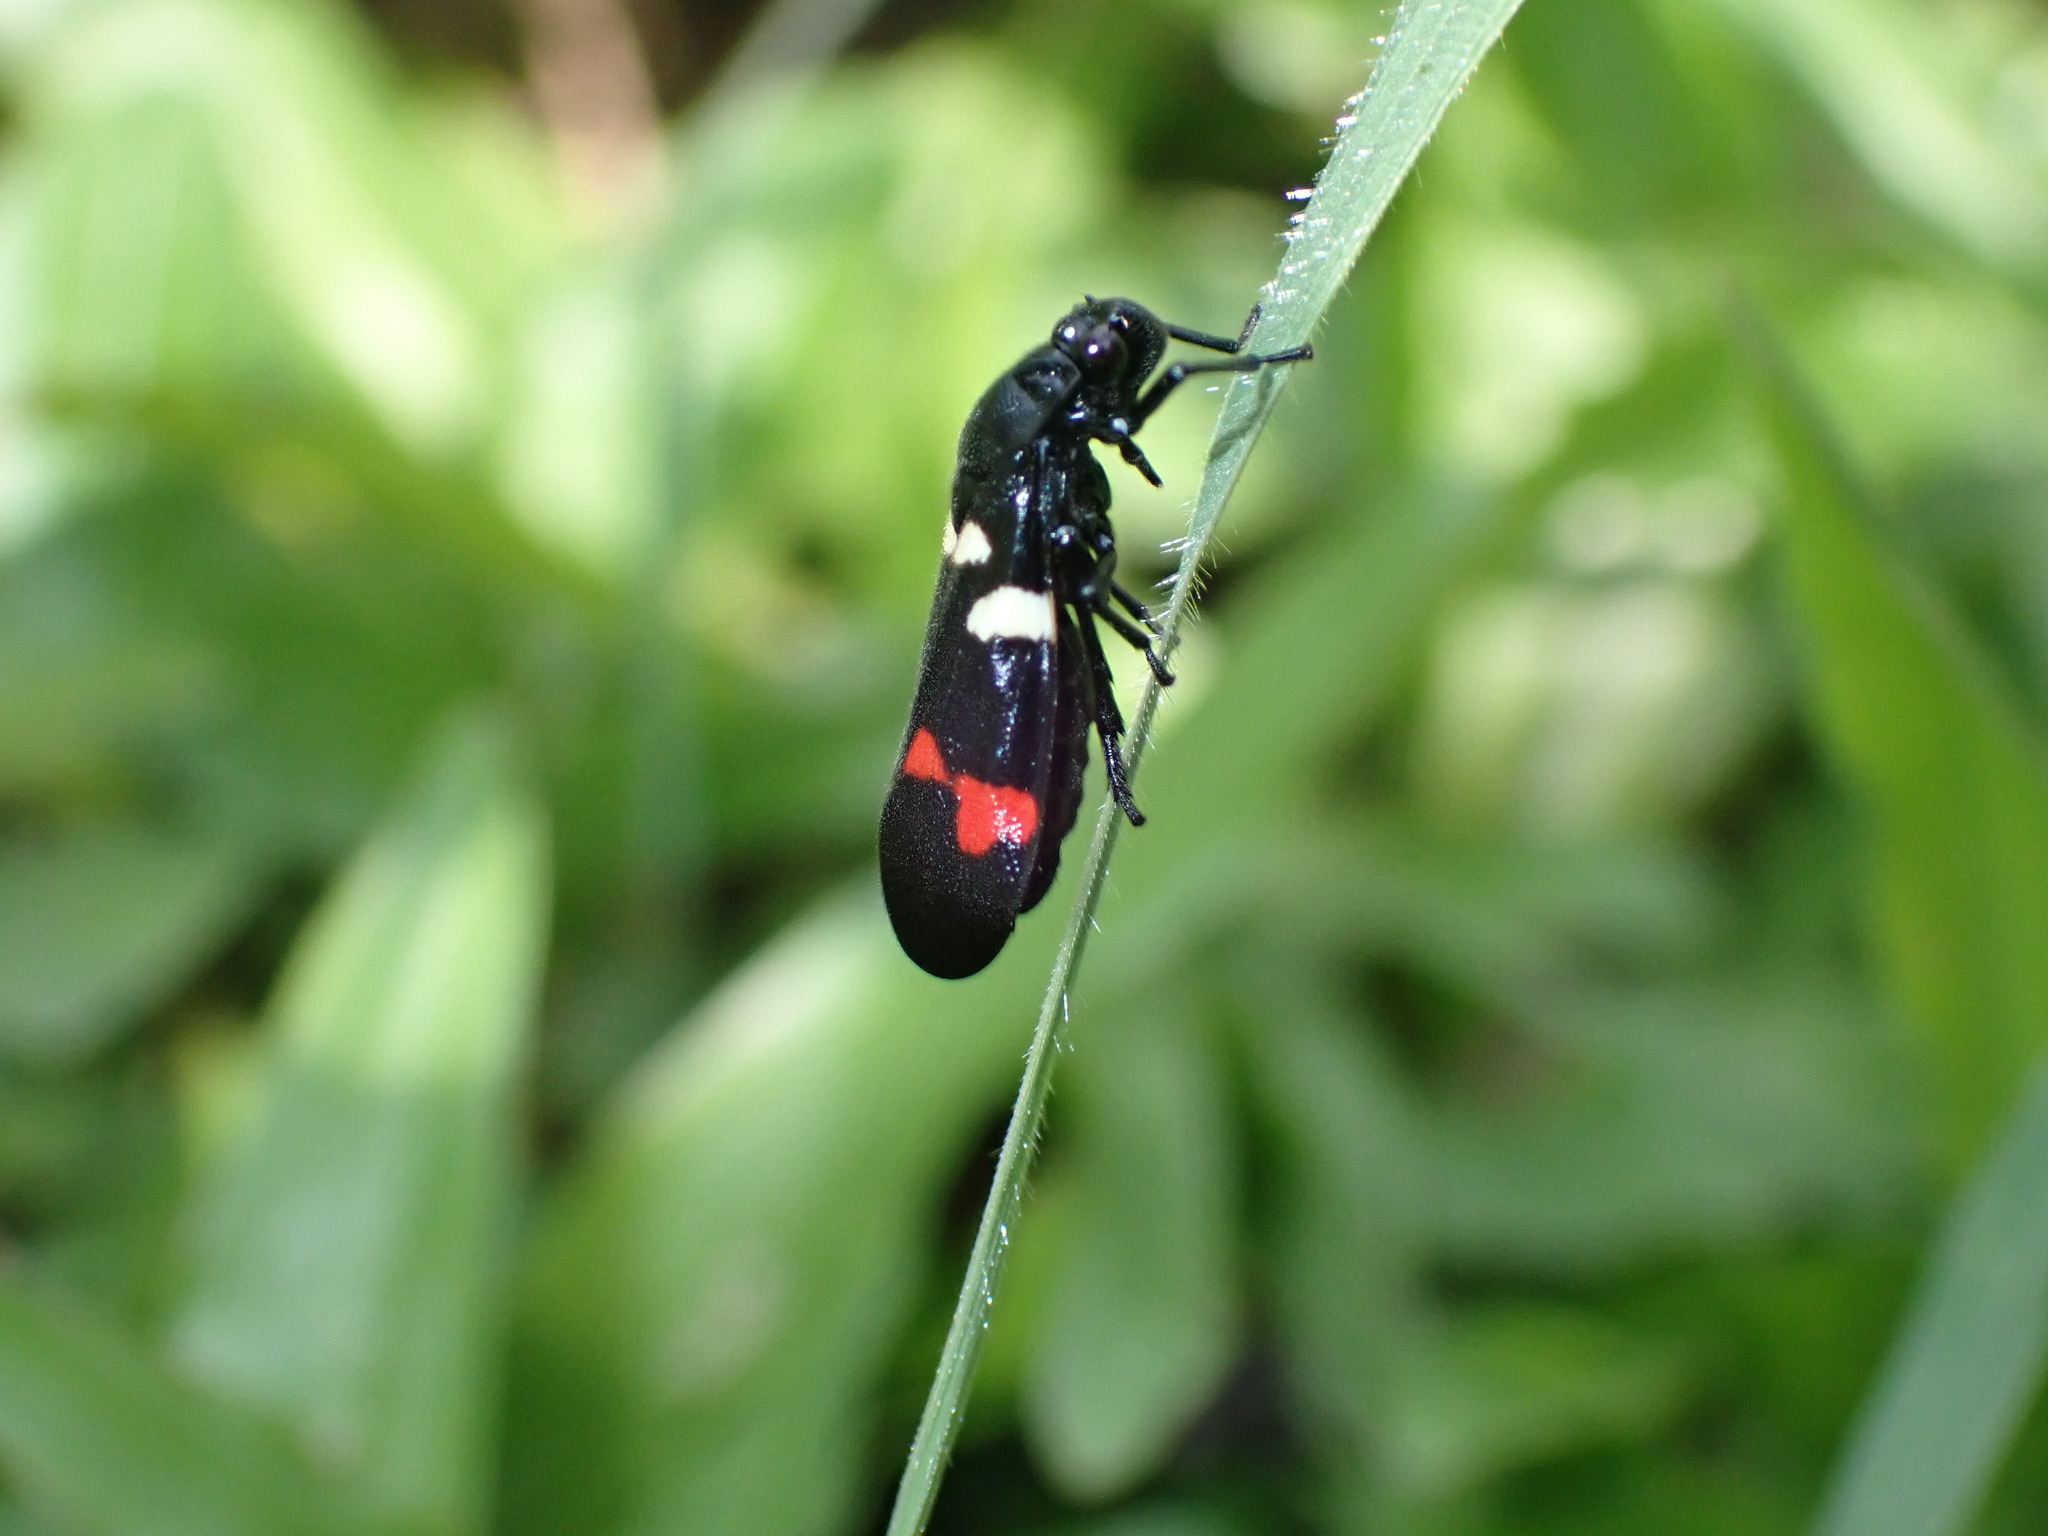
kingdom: Animalia
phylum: Arthropoda
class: Insecta
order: Hemiptera
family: Cercopidae
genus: Callitettix
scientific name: Callitettix versicolor
